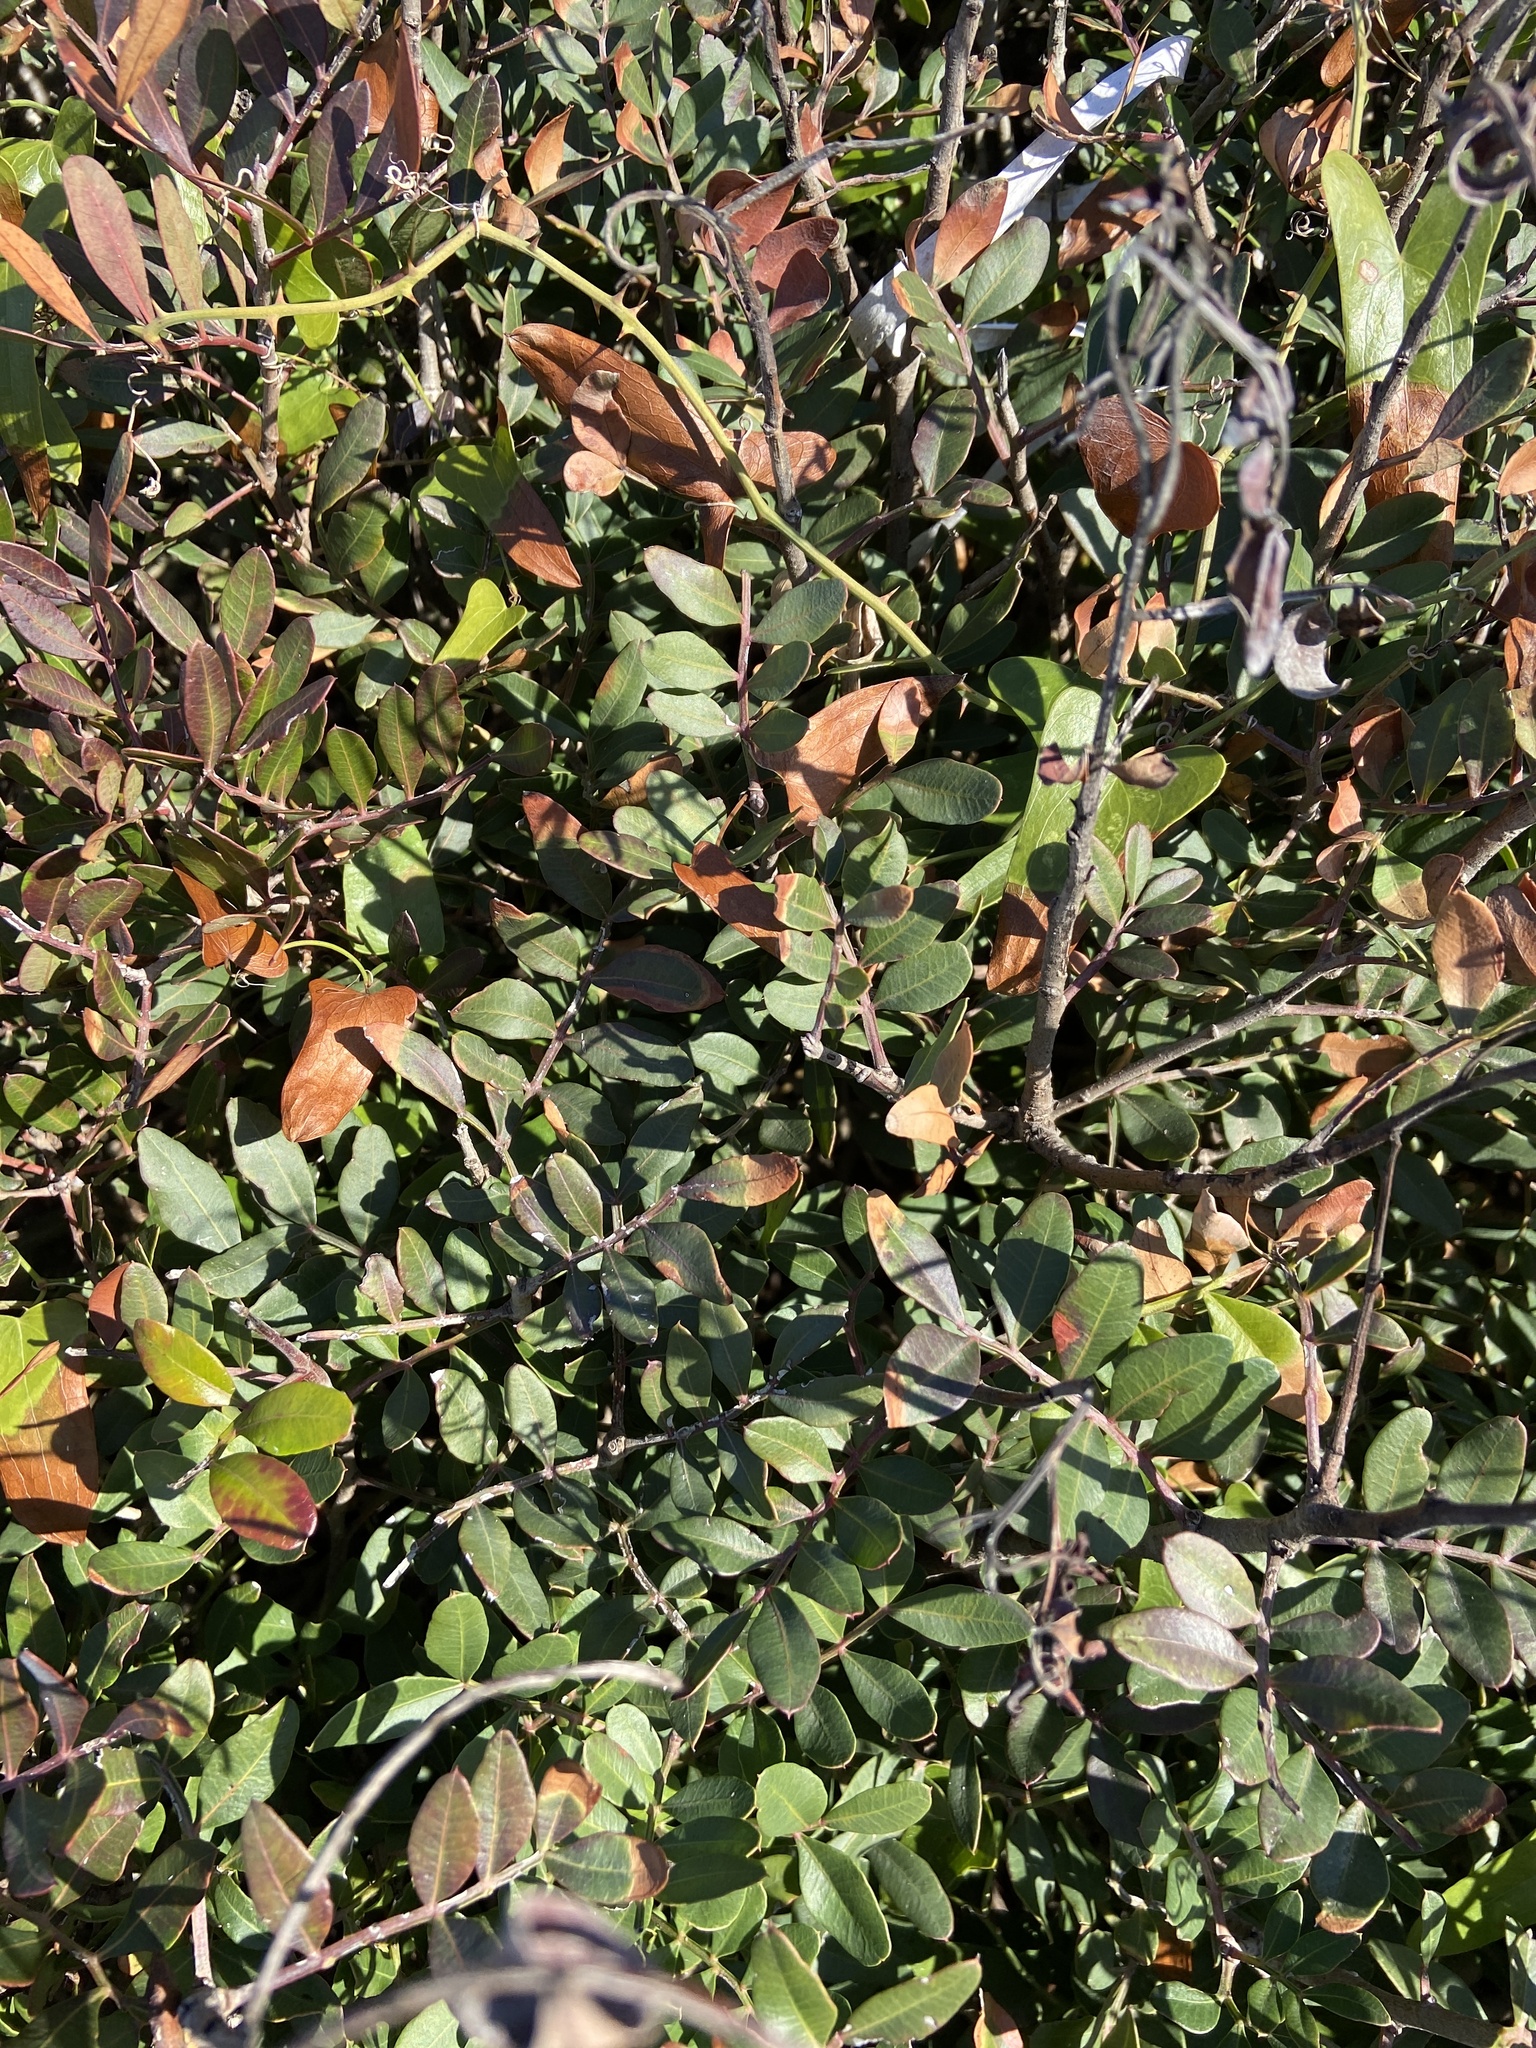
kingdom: Plantae
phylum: Tracheophyta
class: Magnoliopsida
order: Sapindales
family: Anacardiaceae
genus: Pistacia
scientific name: Pistacia lentiscus
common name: Lentisk
